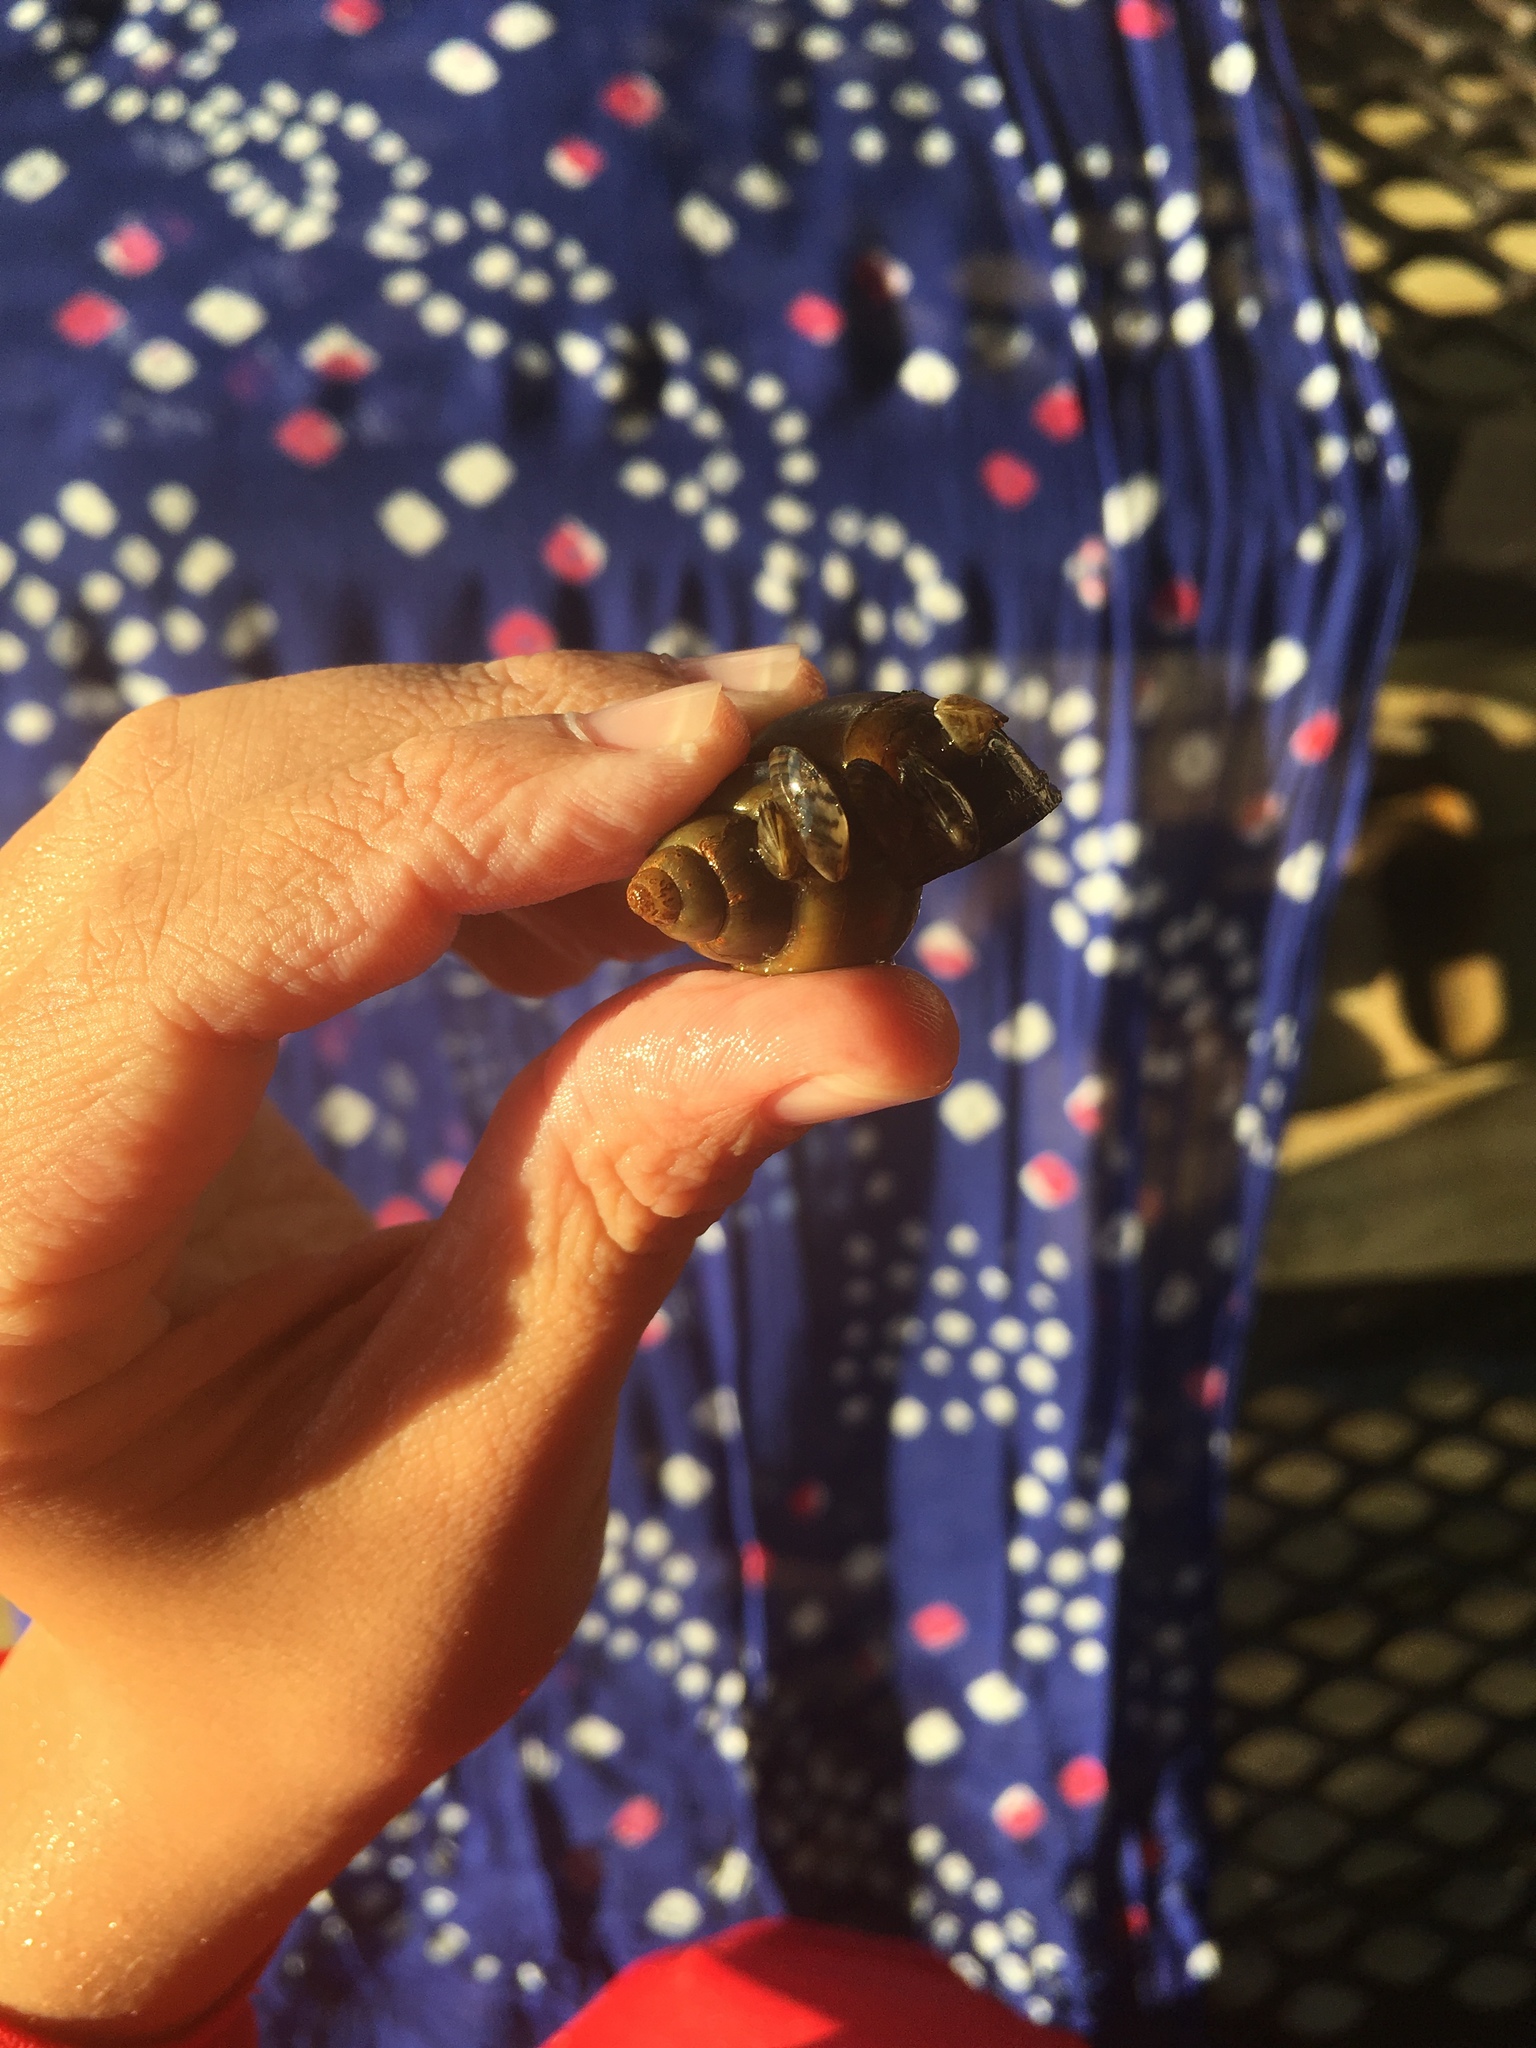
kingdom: Animalia
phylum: Mollusca
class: Bivalvia
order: Myida
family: Dreissenidae
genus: Dreissena
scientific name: Dreissena polymorpha
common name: Zebra mussel
